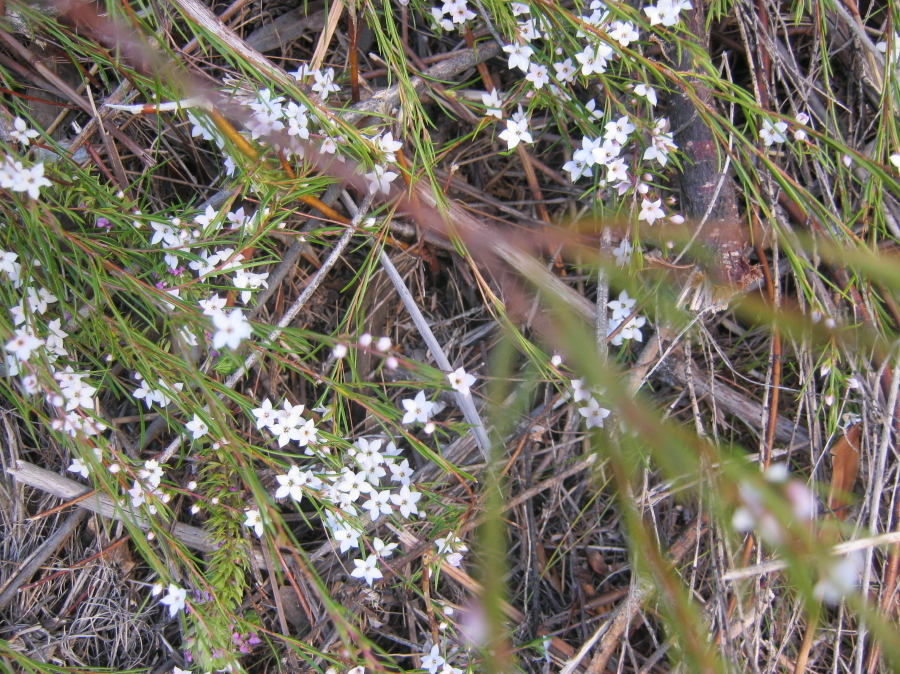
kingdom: Plantae
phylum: Tracheophyta
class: Magnoliopsida
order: Sapindales
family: Rutaceae
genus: Coleonema
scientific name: Coleonema virgatum
